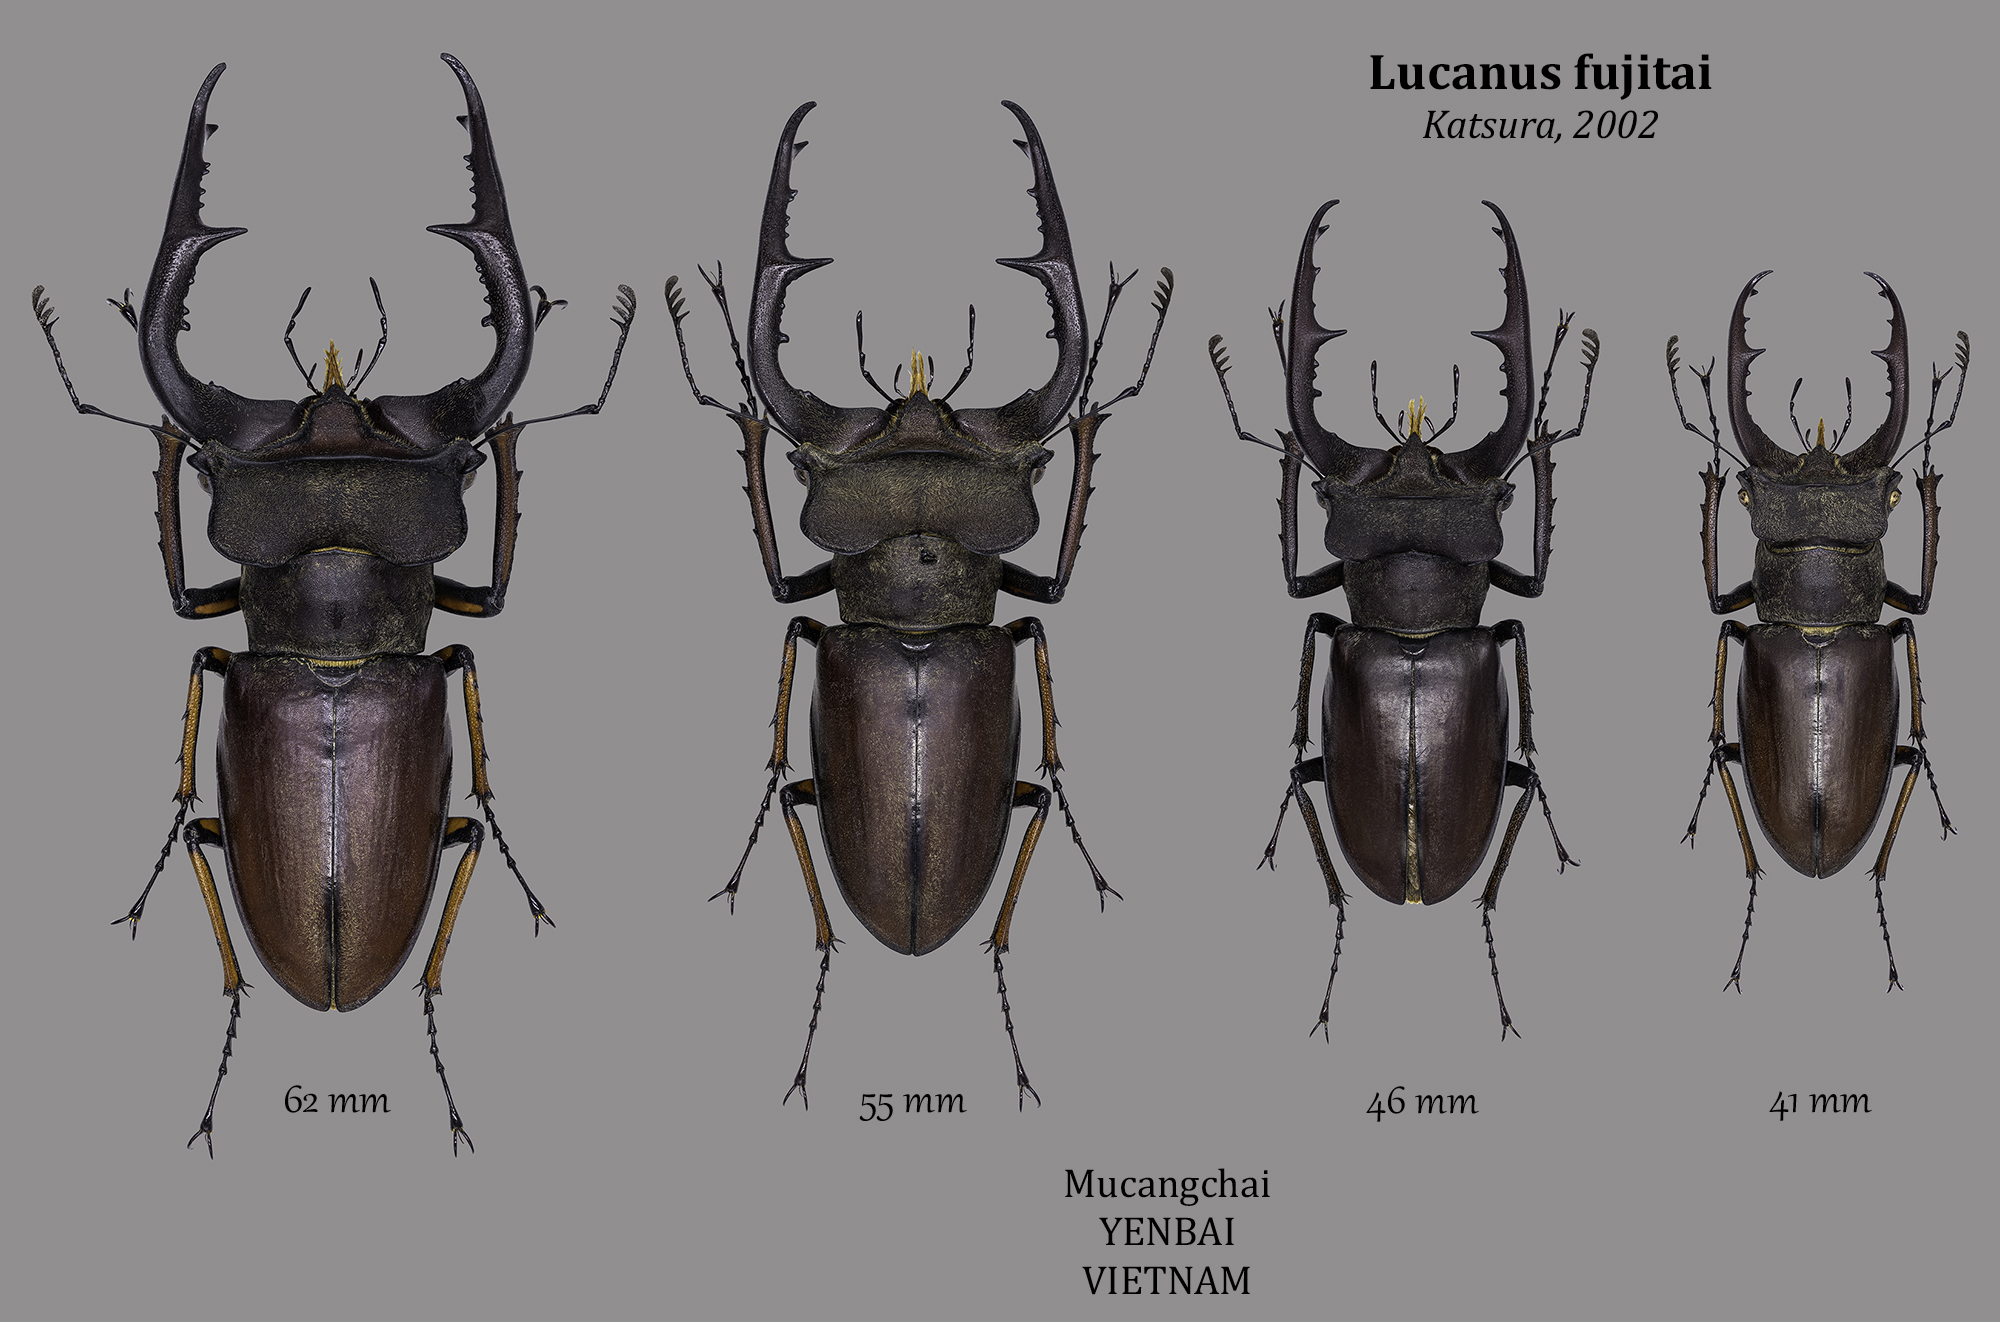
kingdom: Animalia
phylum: Arthropoda
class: Insecta
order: Coleoptera
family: Lucanidae
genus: Lucanus
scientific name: Lucanus fujitai
